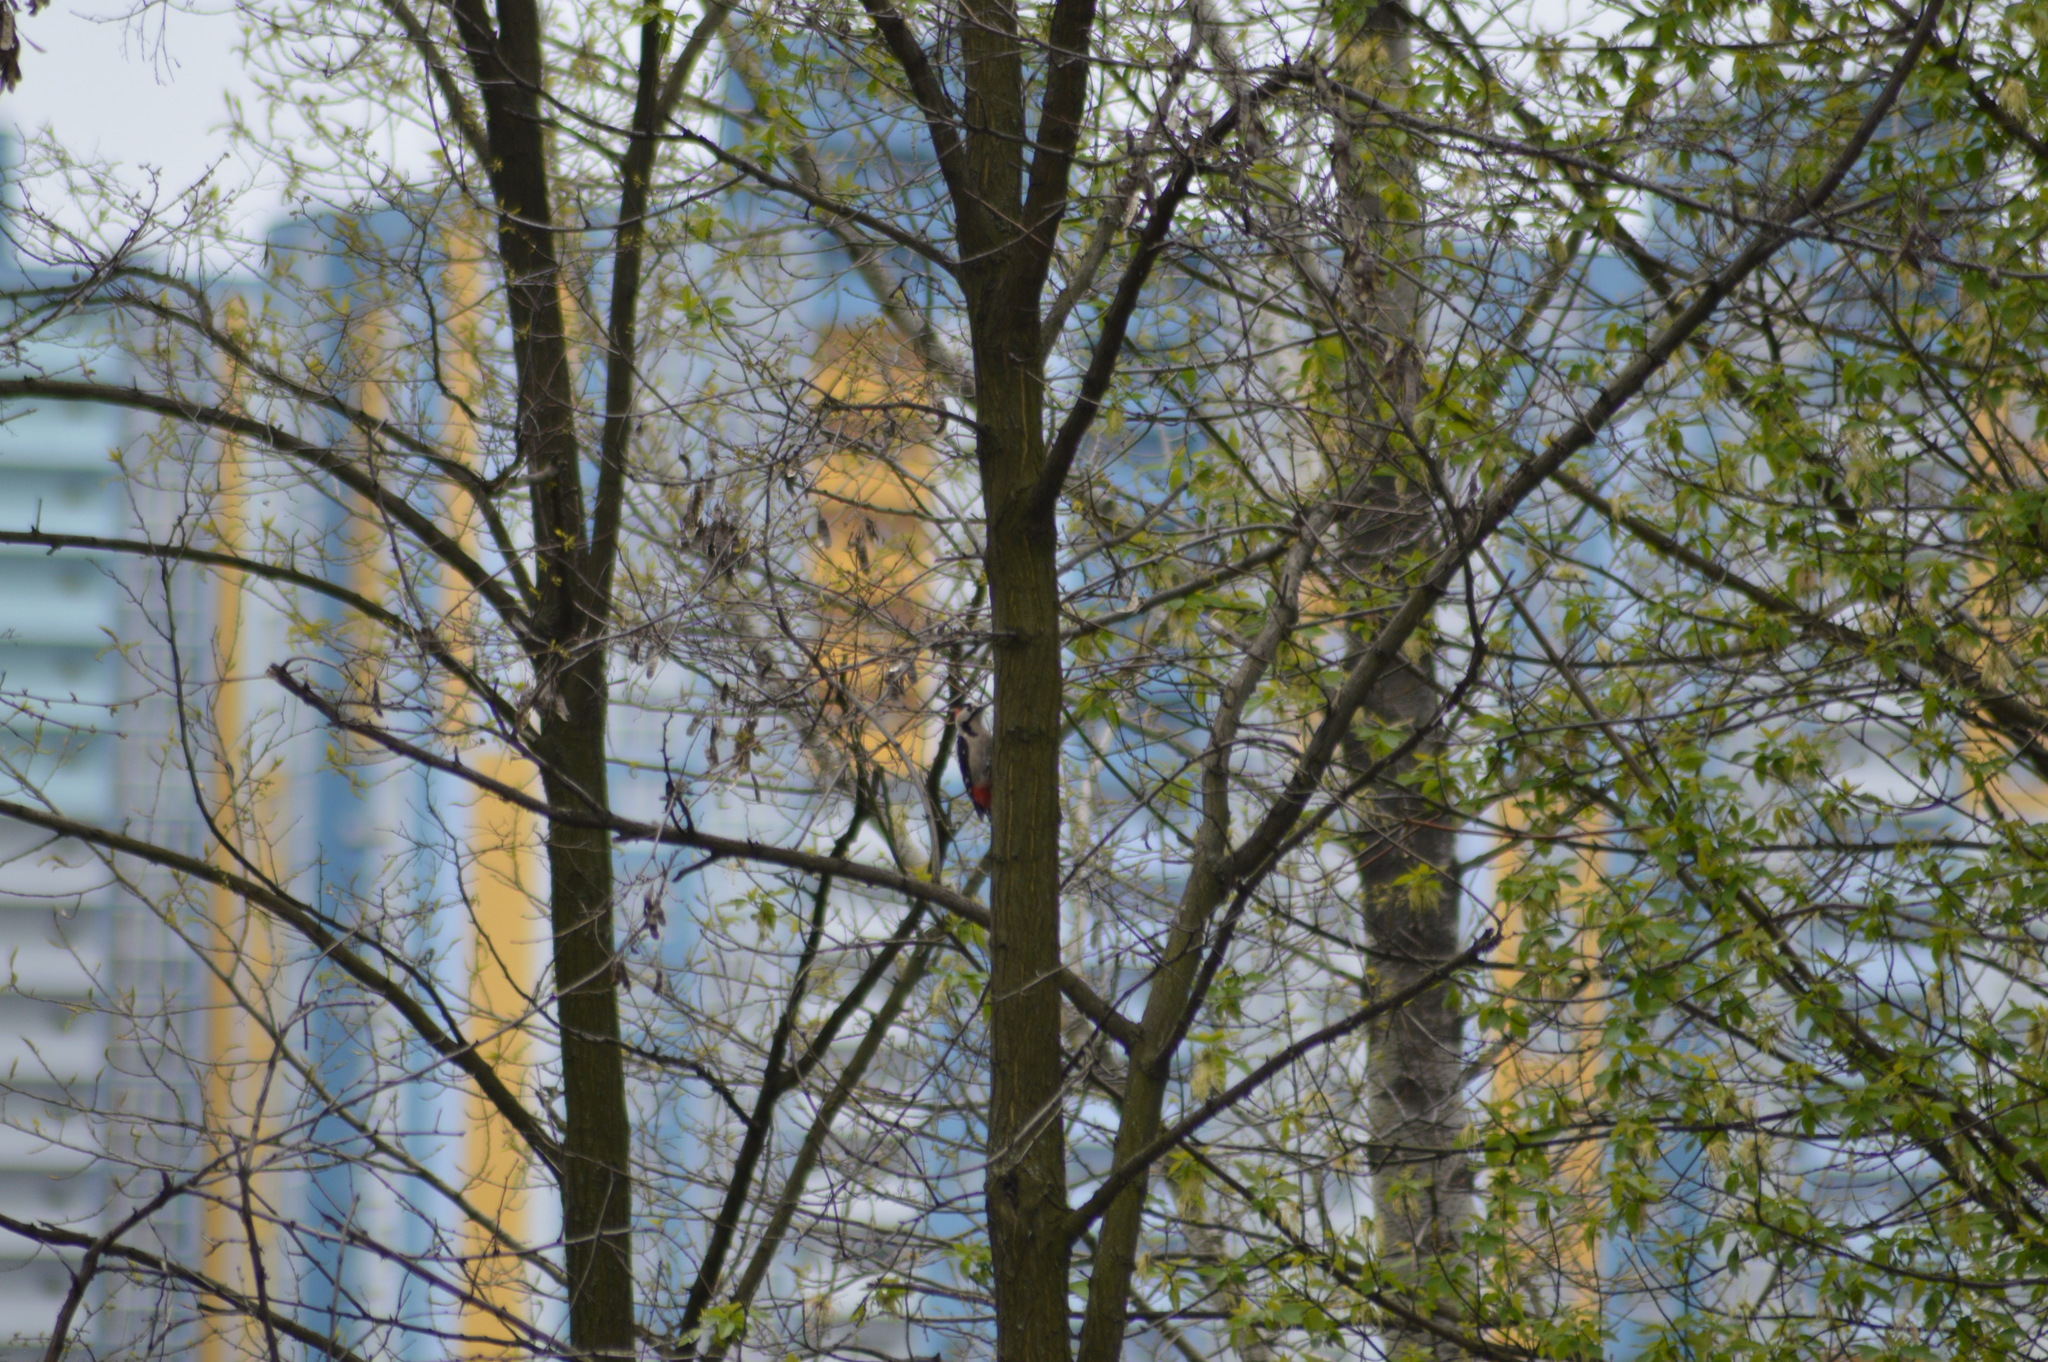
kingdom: Animalia
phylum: Chordata
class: Aves
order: Piciformes
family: Picidae
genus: Dendrocopos
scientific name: Dendrocopos syriacus
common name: Syrian woodpecker
